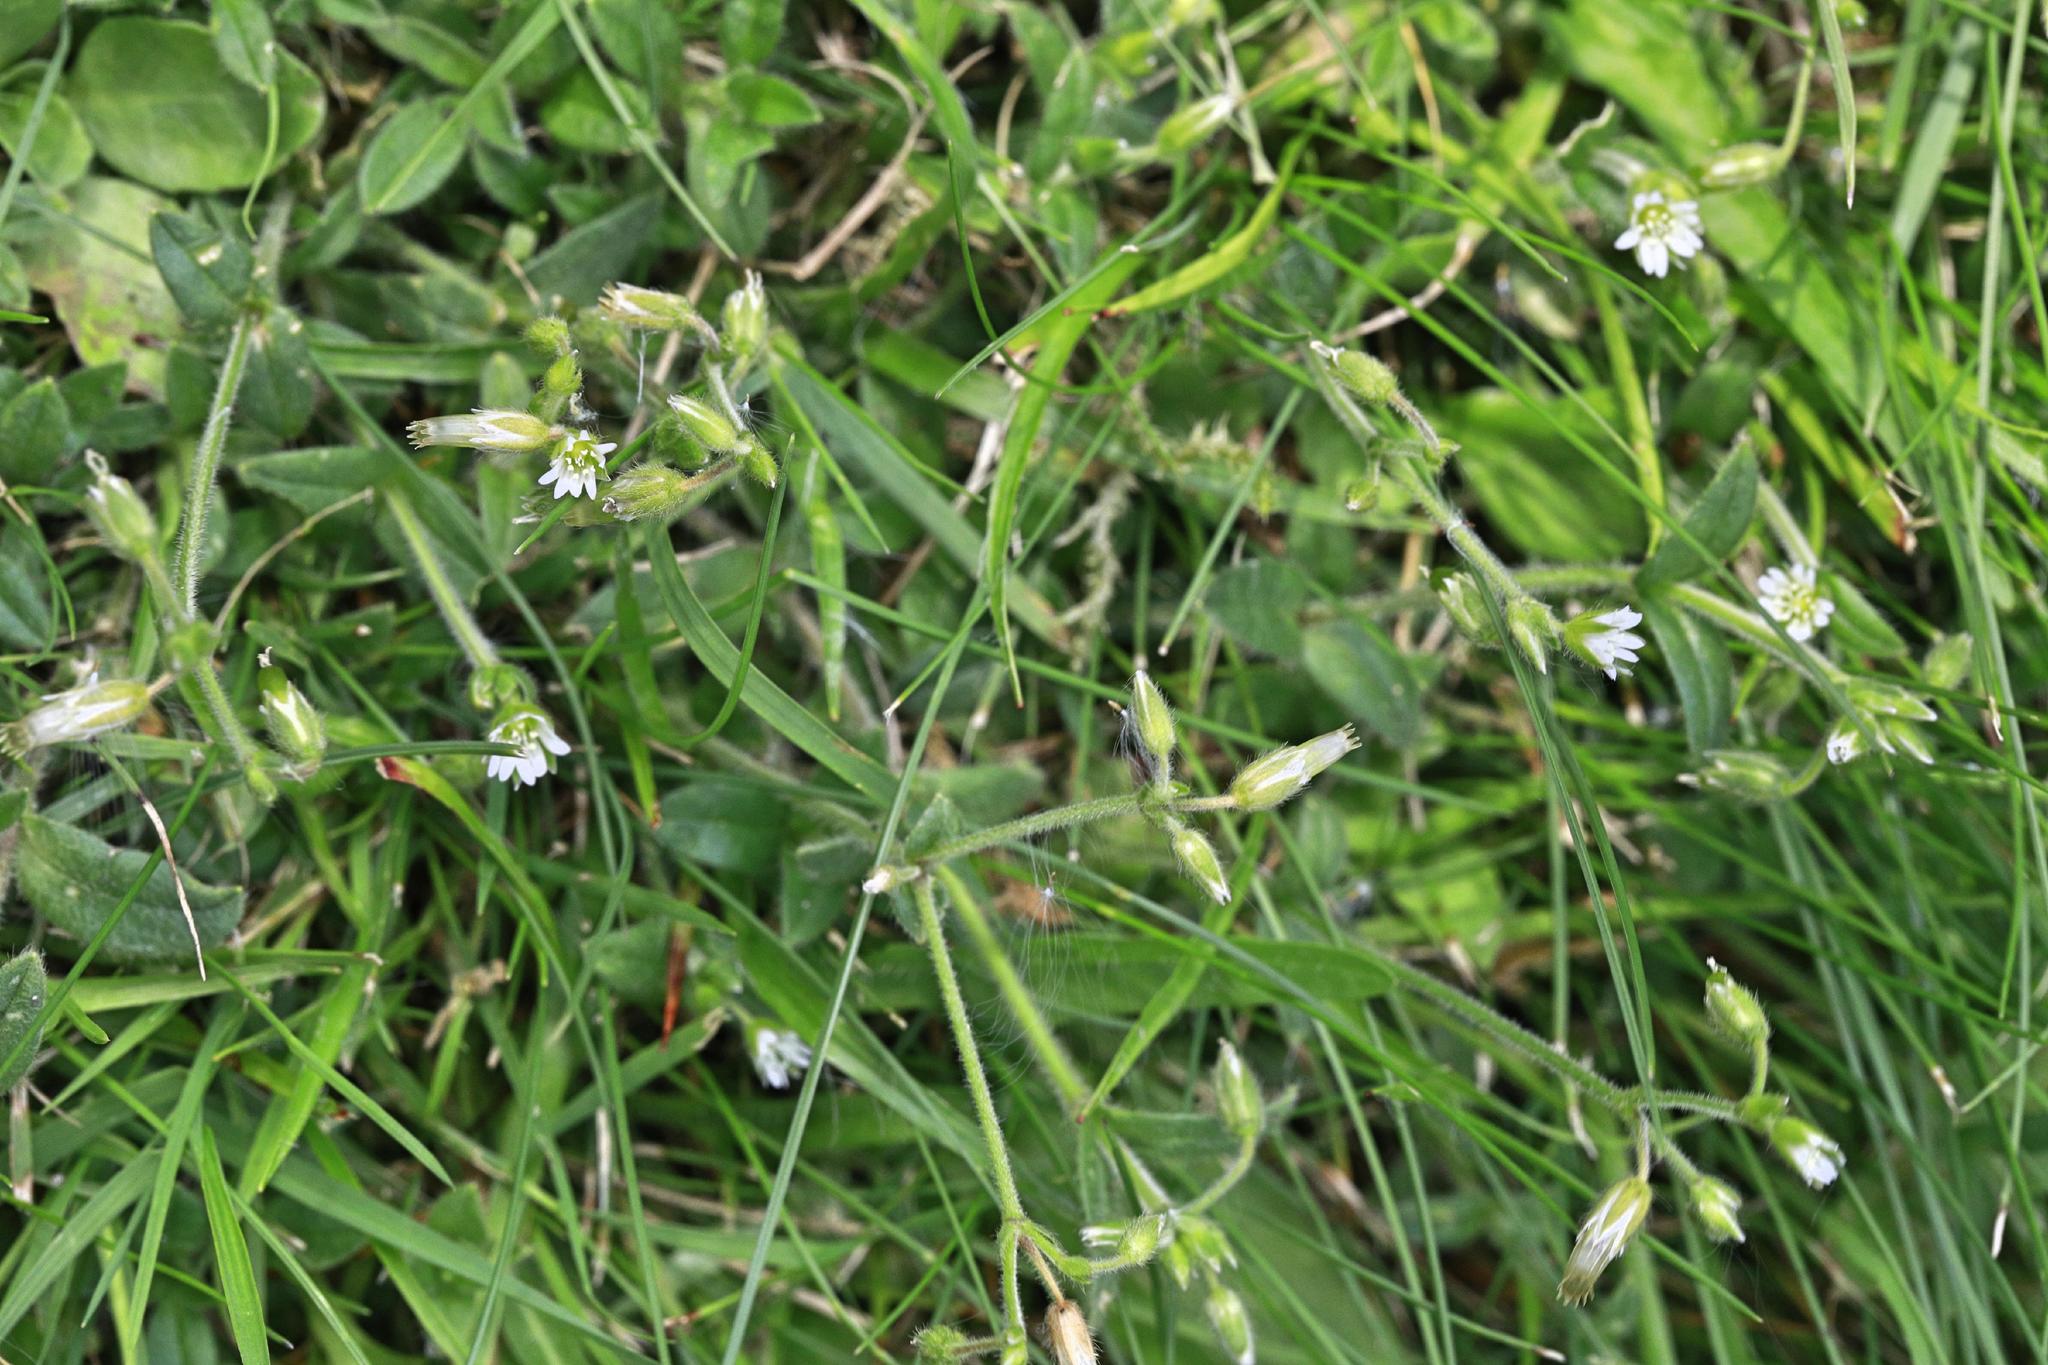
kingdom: Plantae
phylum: Tracheophyta
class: Magnoliopsida
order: Caryophyllales
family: Caryophyllaceae
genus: Cerastium
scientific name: Cerastium fontanum
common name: Common mouse-ear
